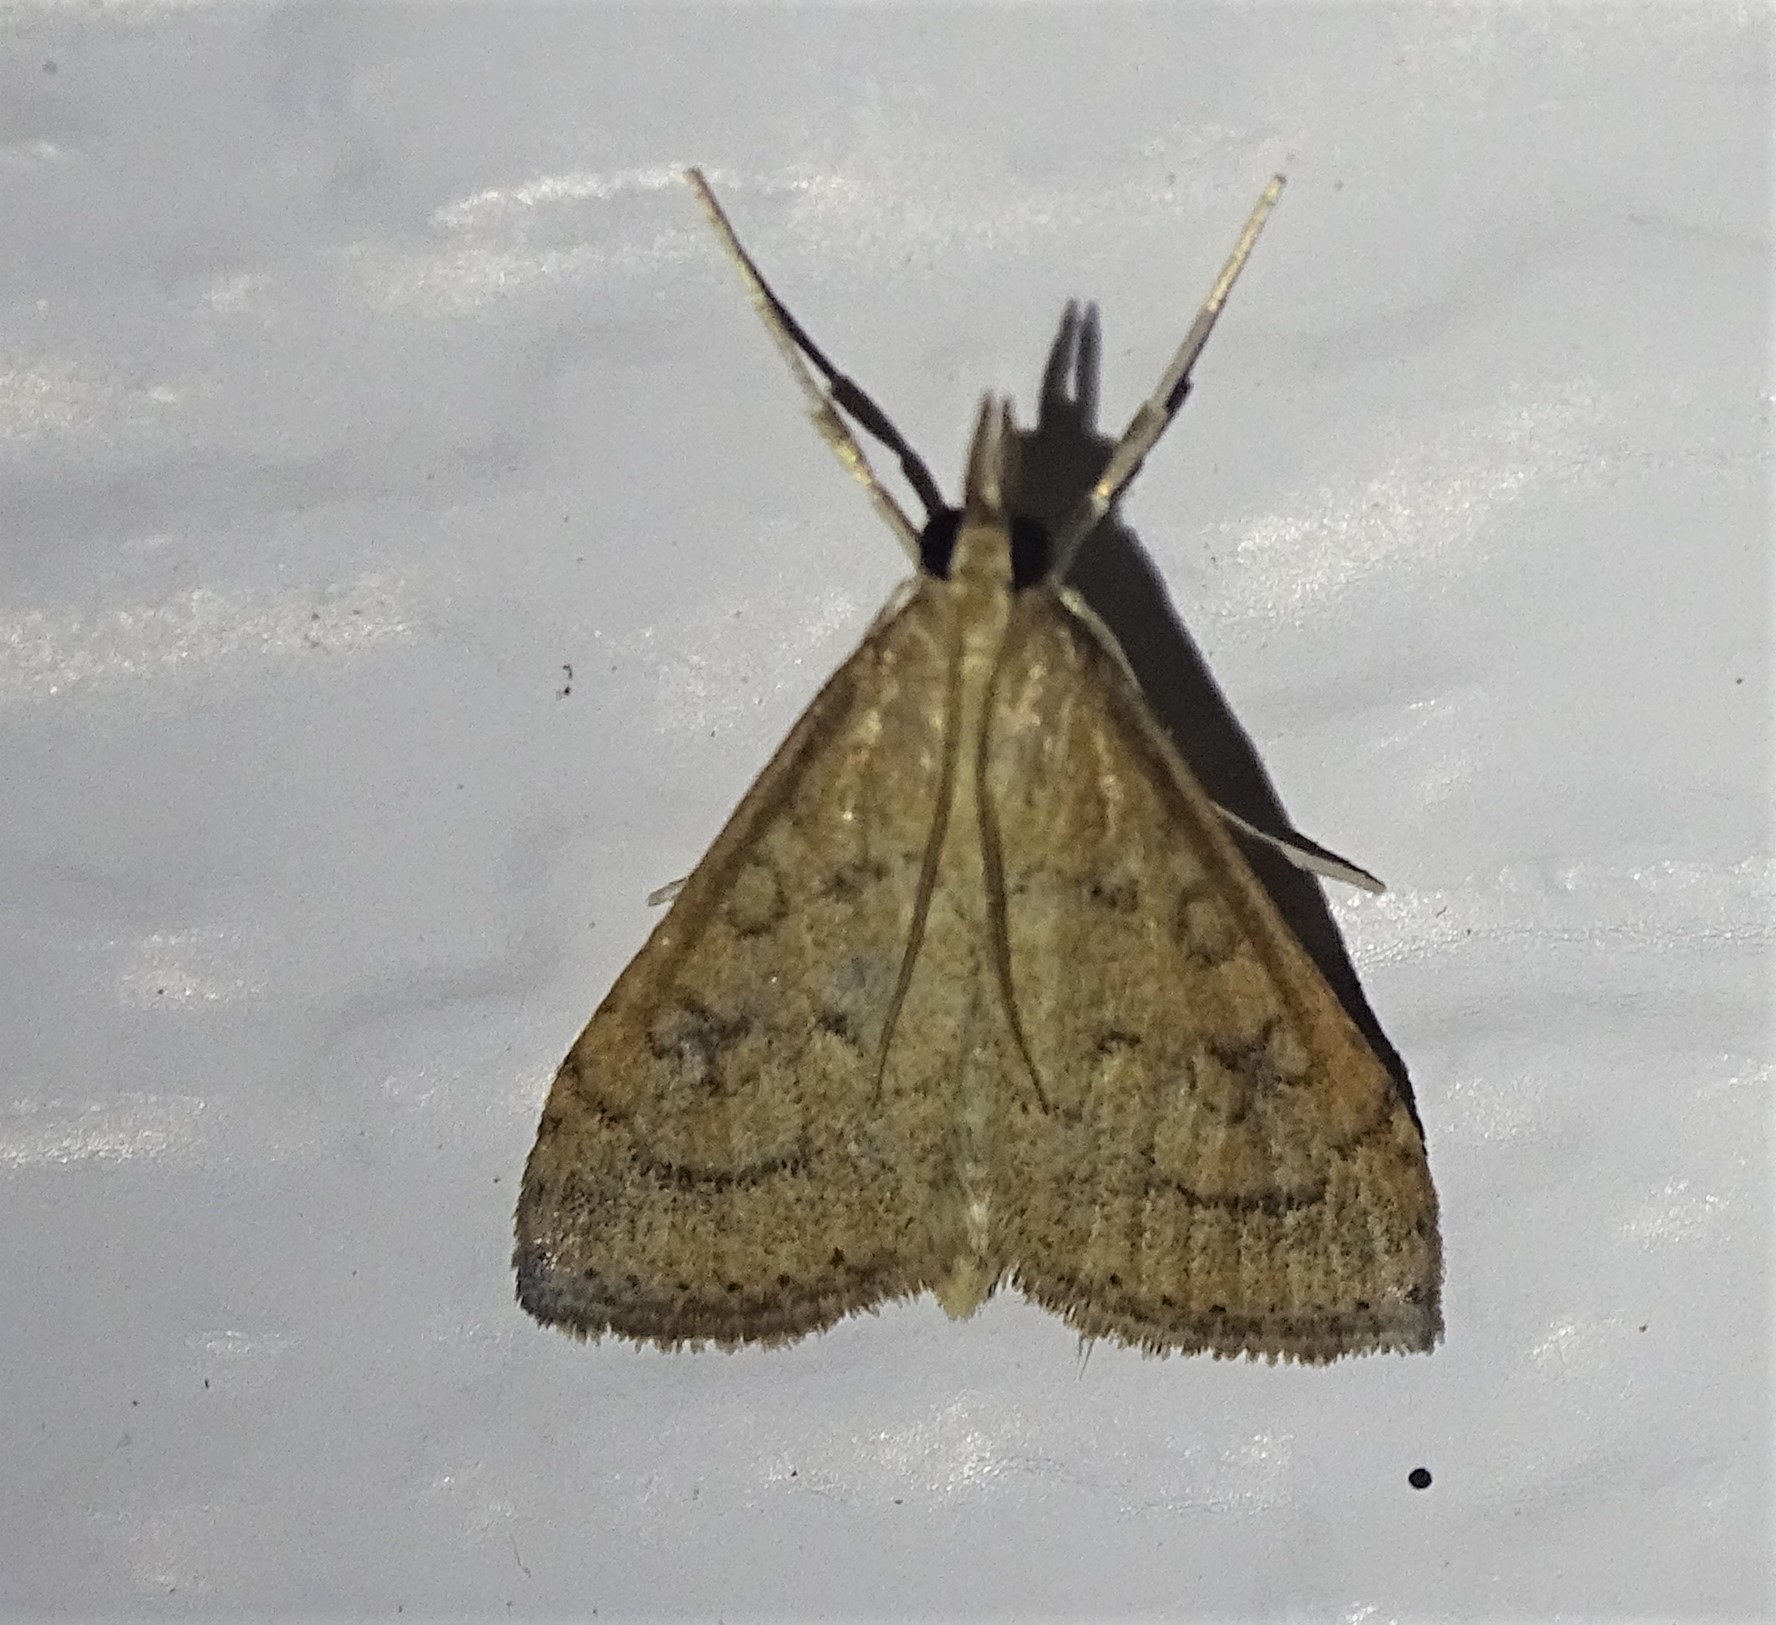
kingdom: Animalia
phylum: Arthropoda
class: Insecta
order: Lepidoptera
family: Crambidae
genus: Udea
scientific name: Udea rubigalis
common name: Celery leaftier moth
